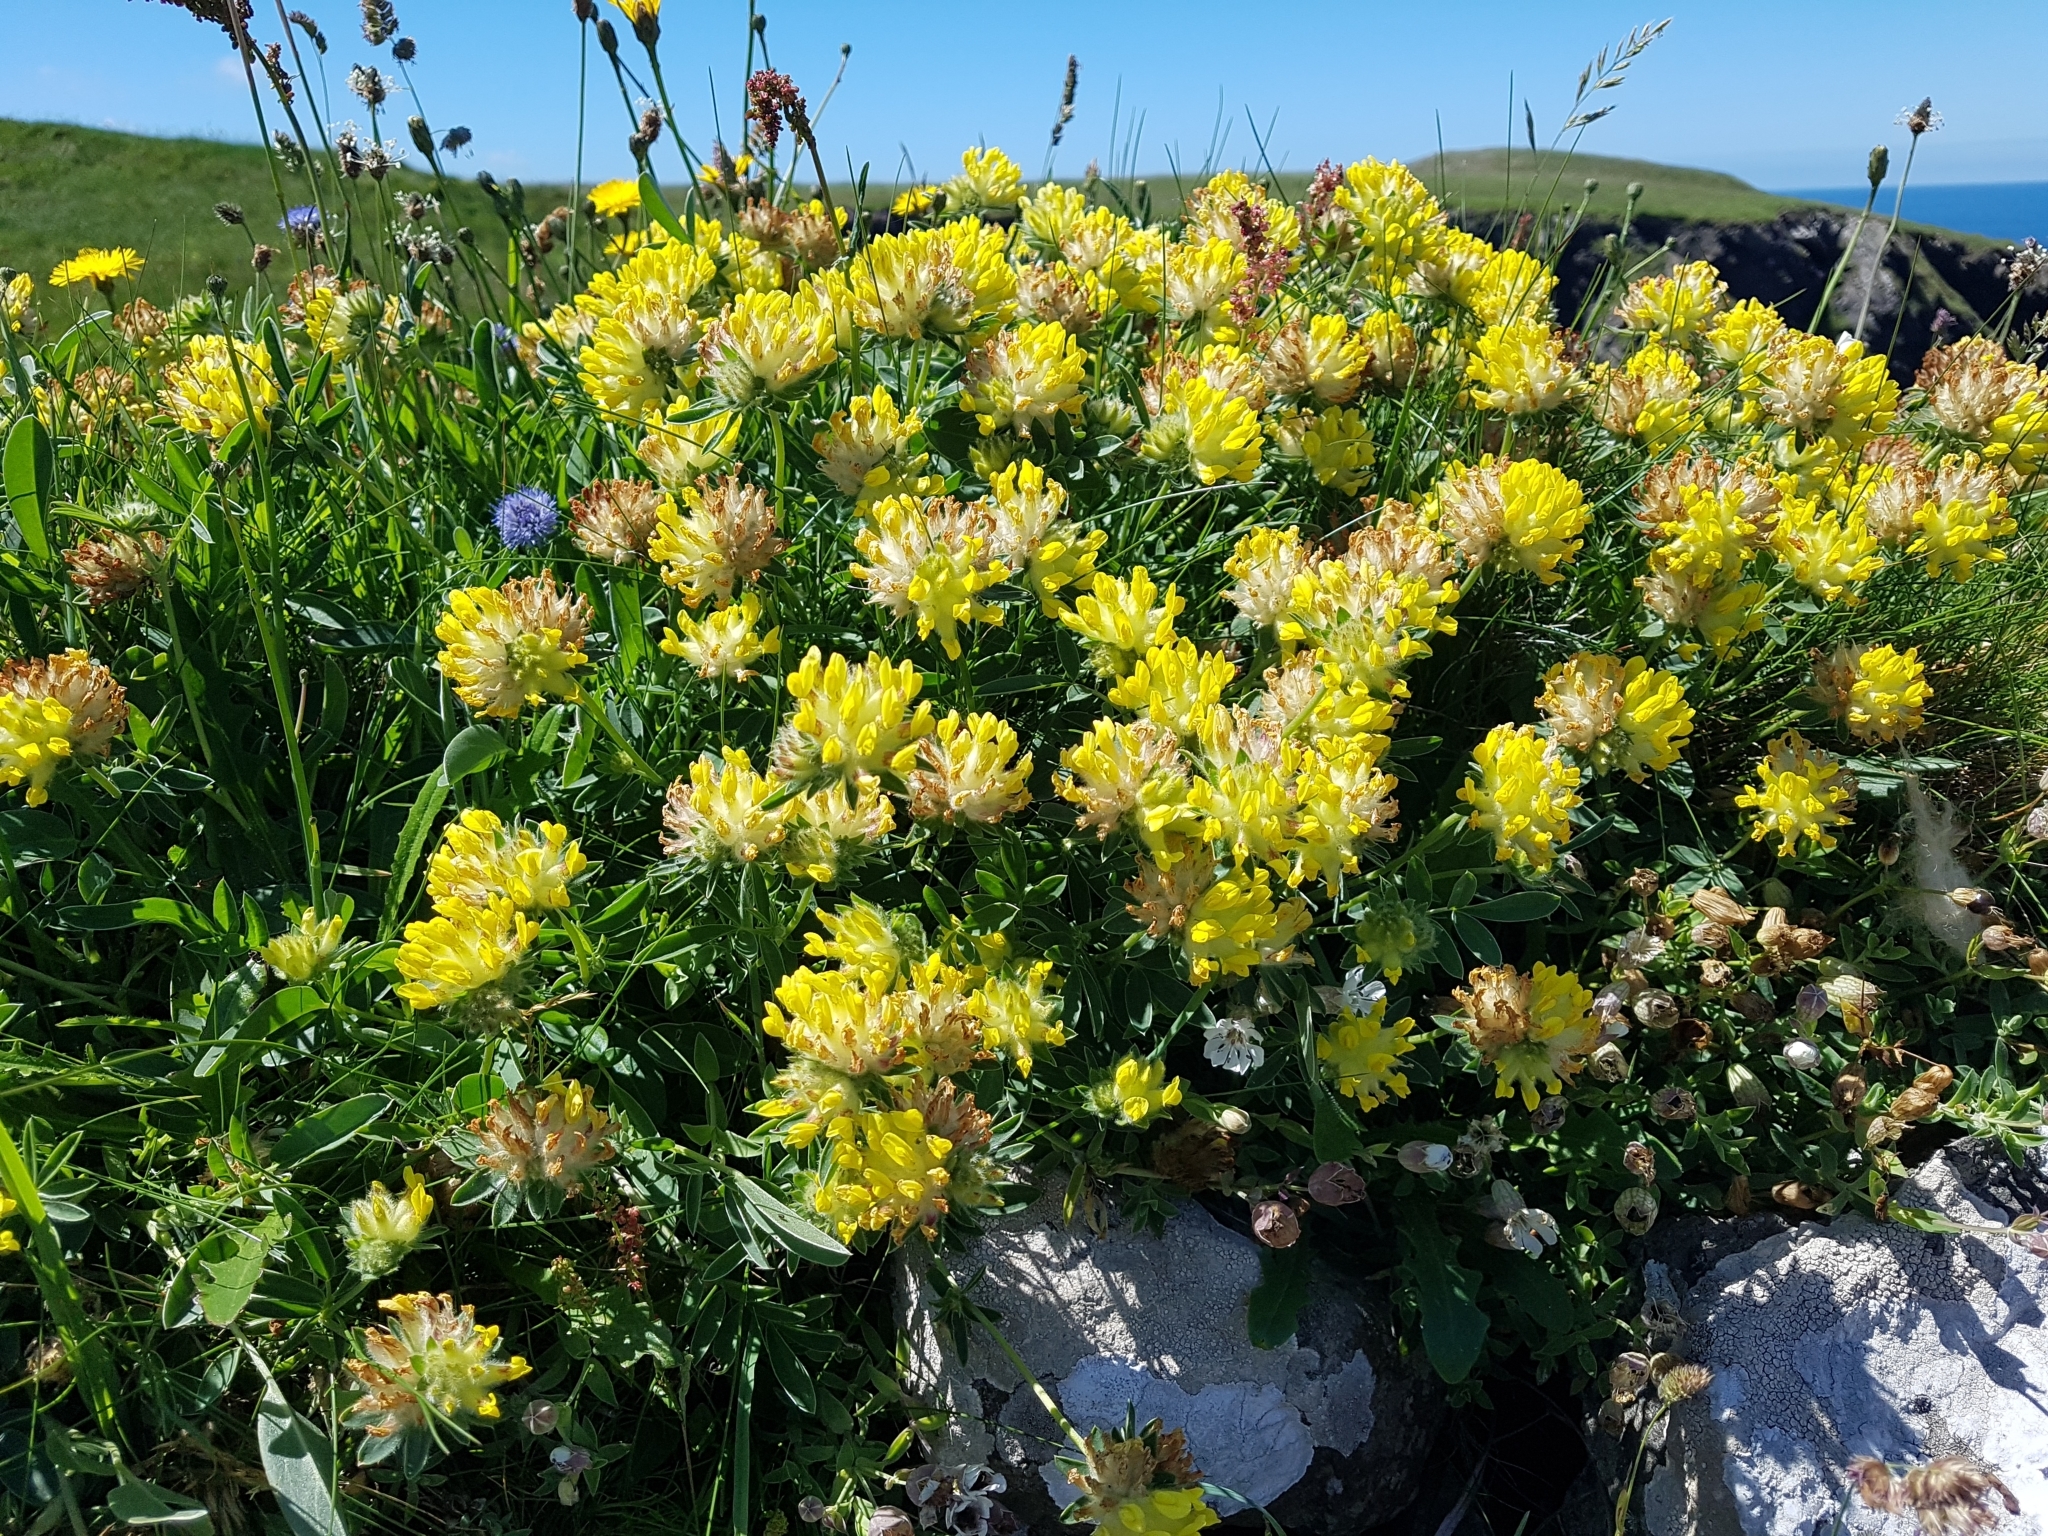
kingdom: Plantae
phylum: Tracheophyta
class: Magnoliopsida
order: Fabales
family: Fabaceae
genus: Anthyllis
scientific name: Anthyllis vulneraria
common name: Kidney vetch
